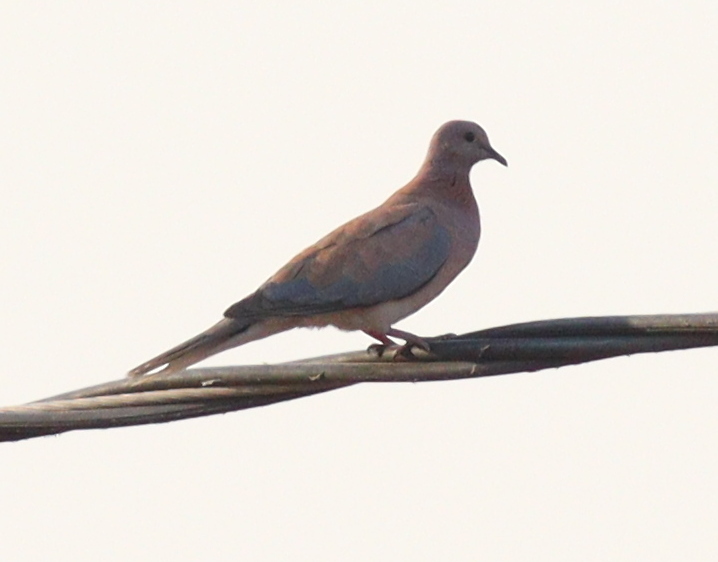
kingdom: Animalia
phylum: Chordata
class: Aves
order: Columbiformes
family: Columbidae
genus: Spilopelia
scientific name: Spilopelia senegalensis
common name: Laughing dove
